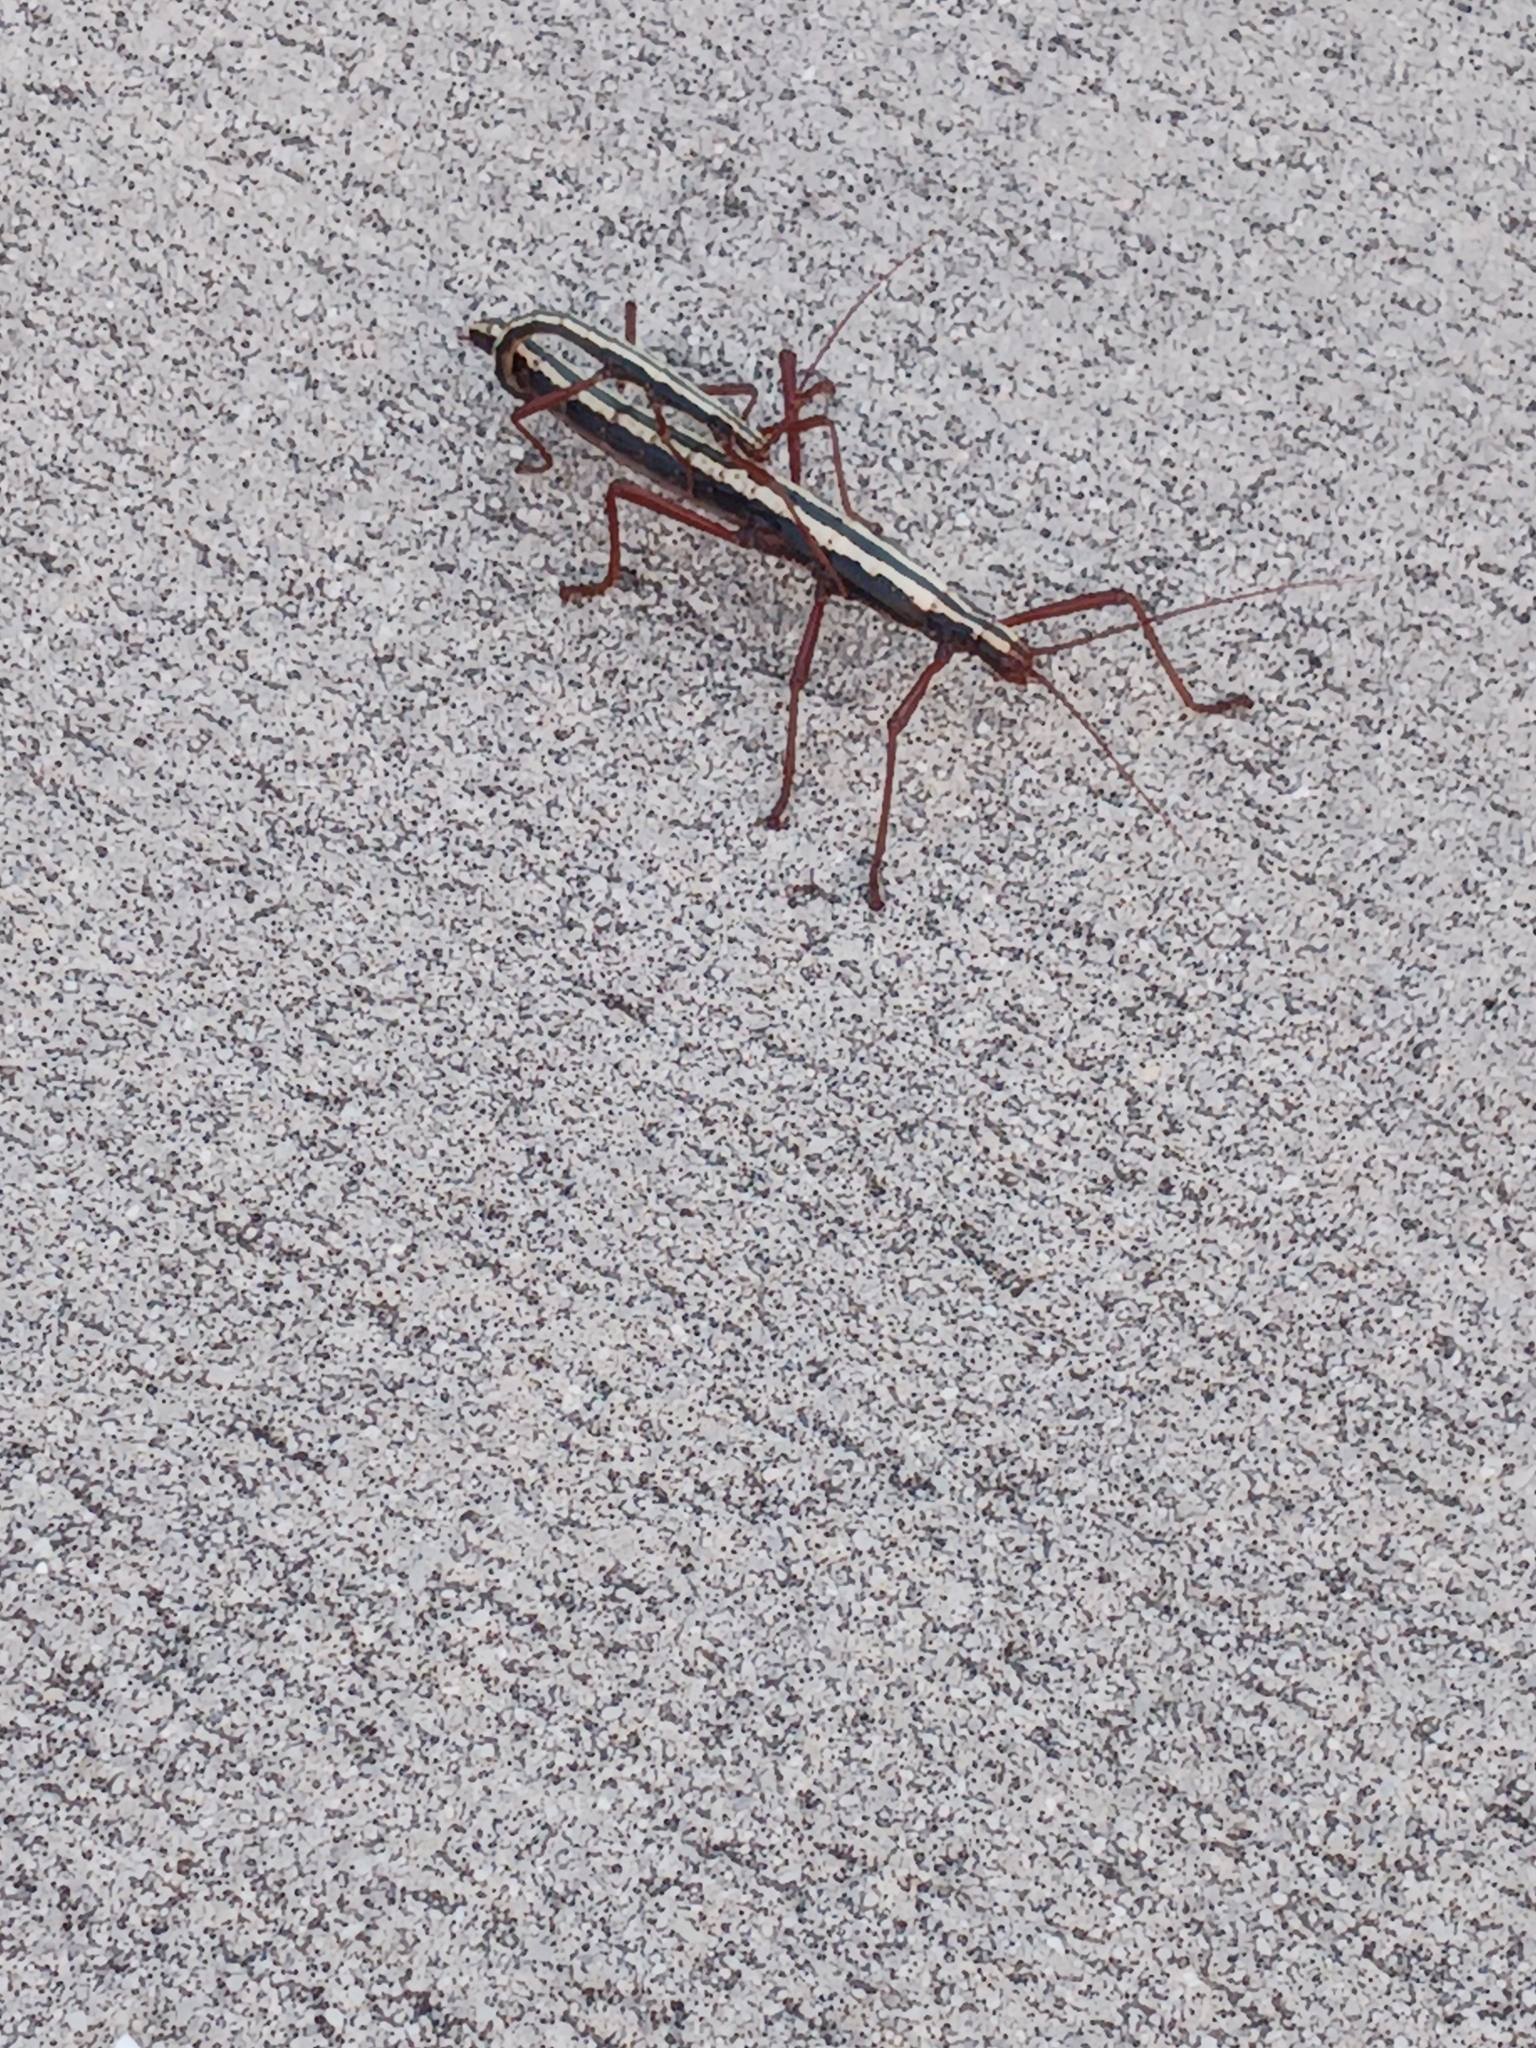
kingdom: Animalia
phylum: Arthropoda
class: Insecta
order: Phasmida
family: Pseudophasmatidae
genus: Anisomorpha
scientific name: Anisomorpha buprestoides
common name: Florida stick insect
